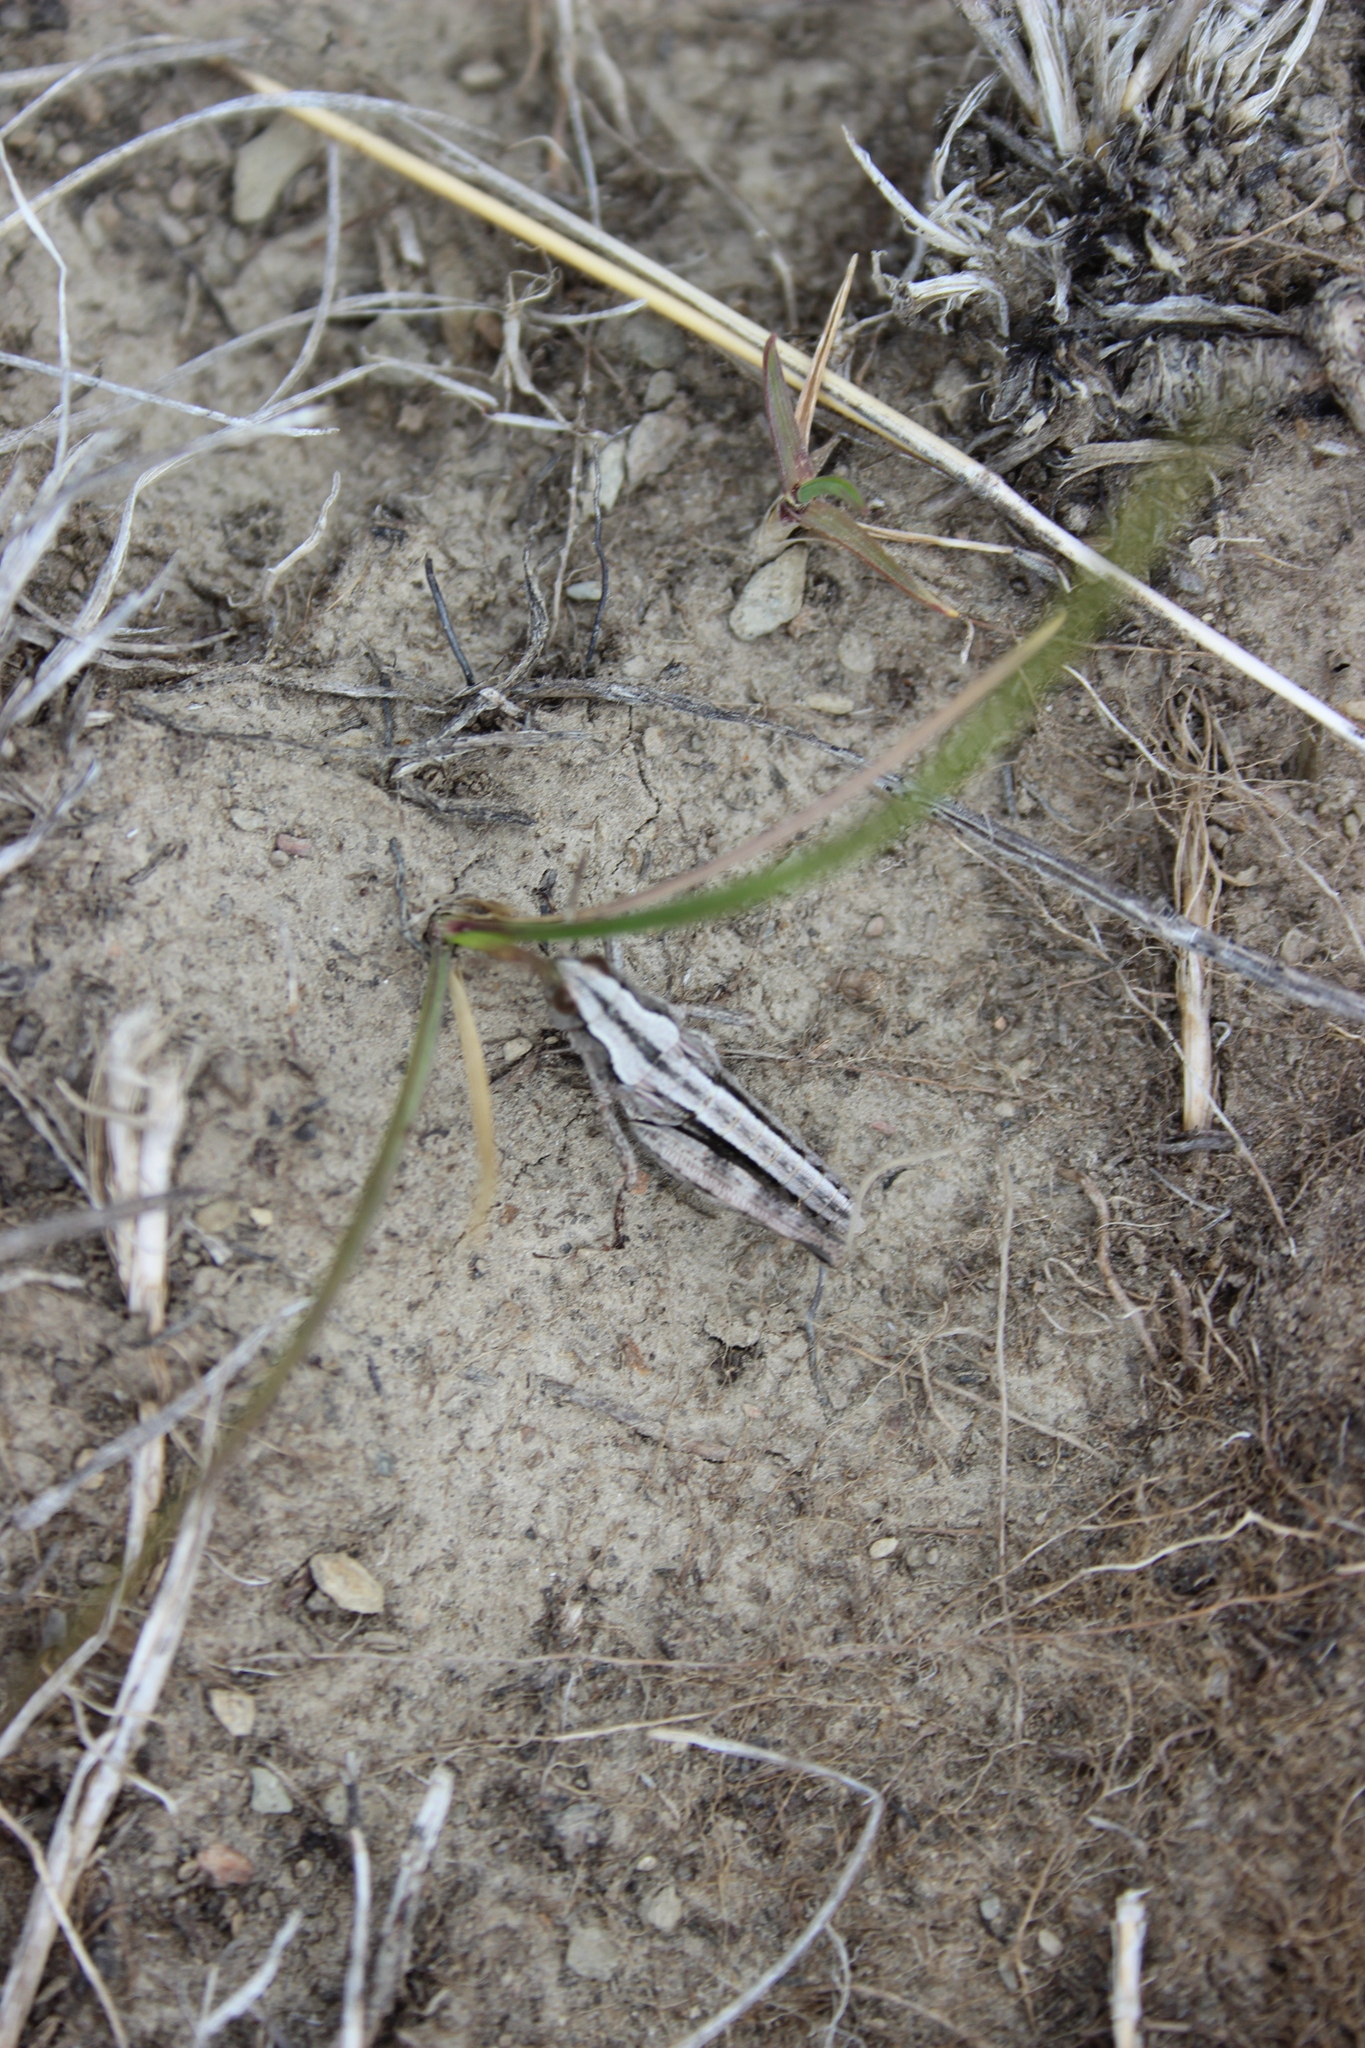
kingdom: Animalia
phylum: Arthropoda
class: Insecta
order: Orthoptera
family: Acrididae
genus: Sigaus
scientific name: Sigaus australis
